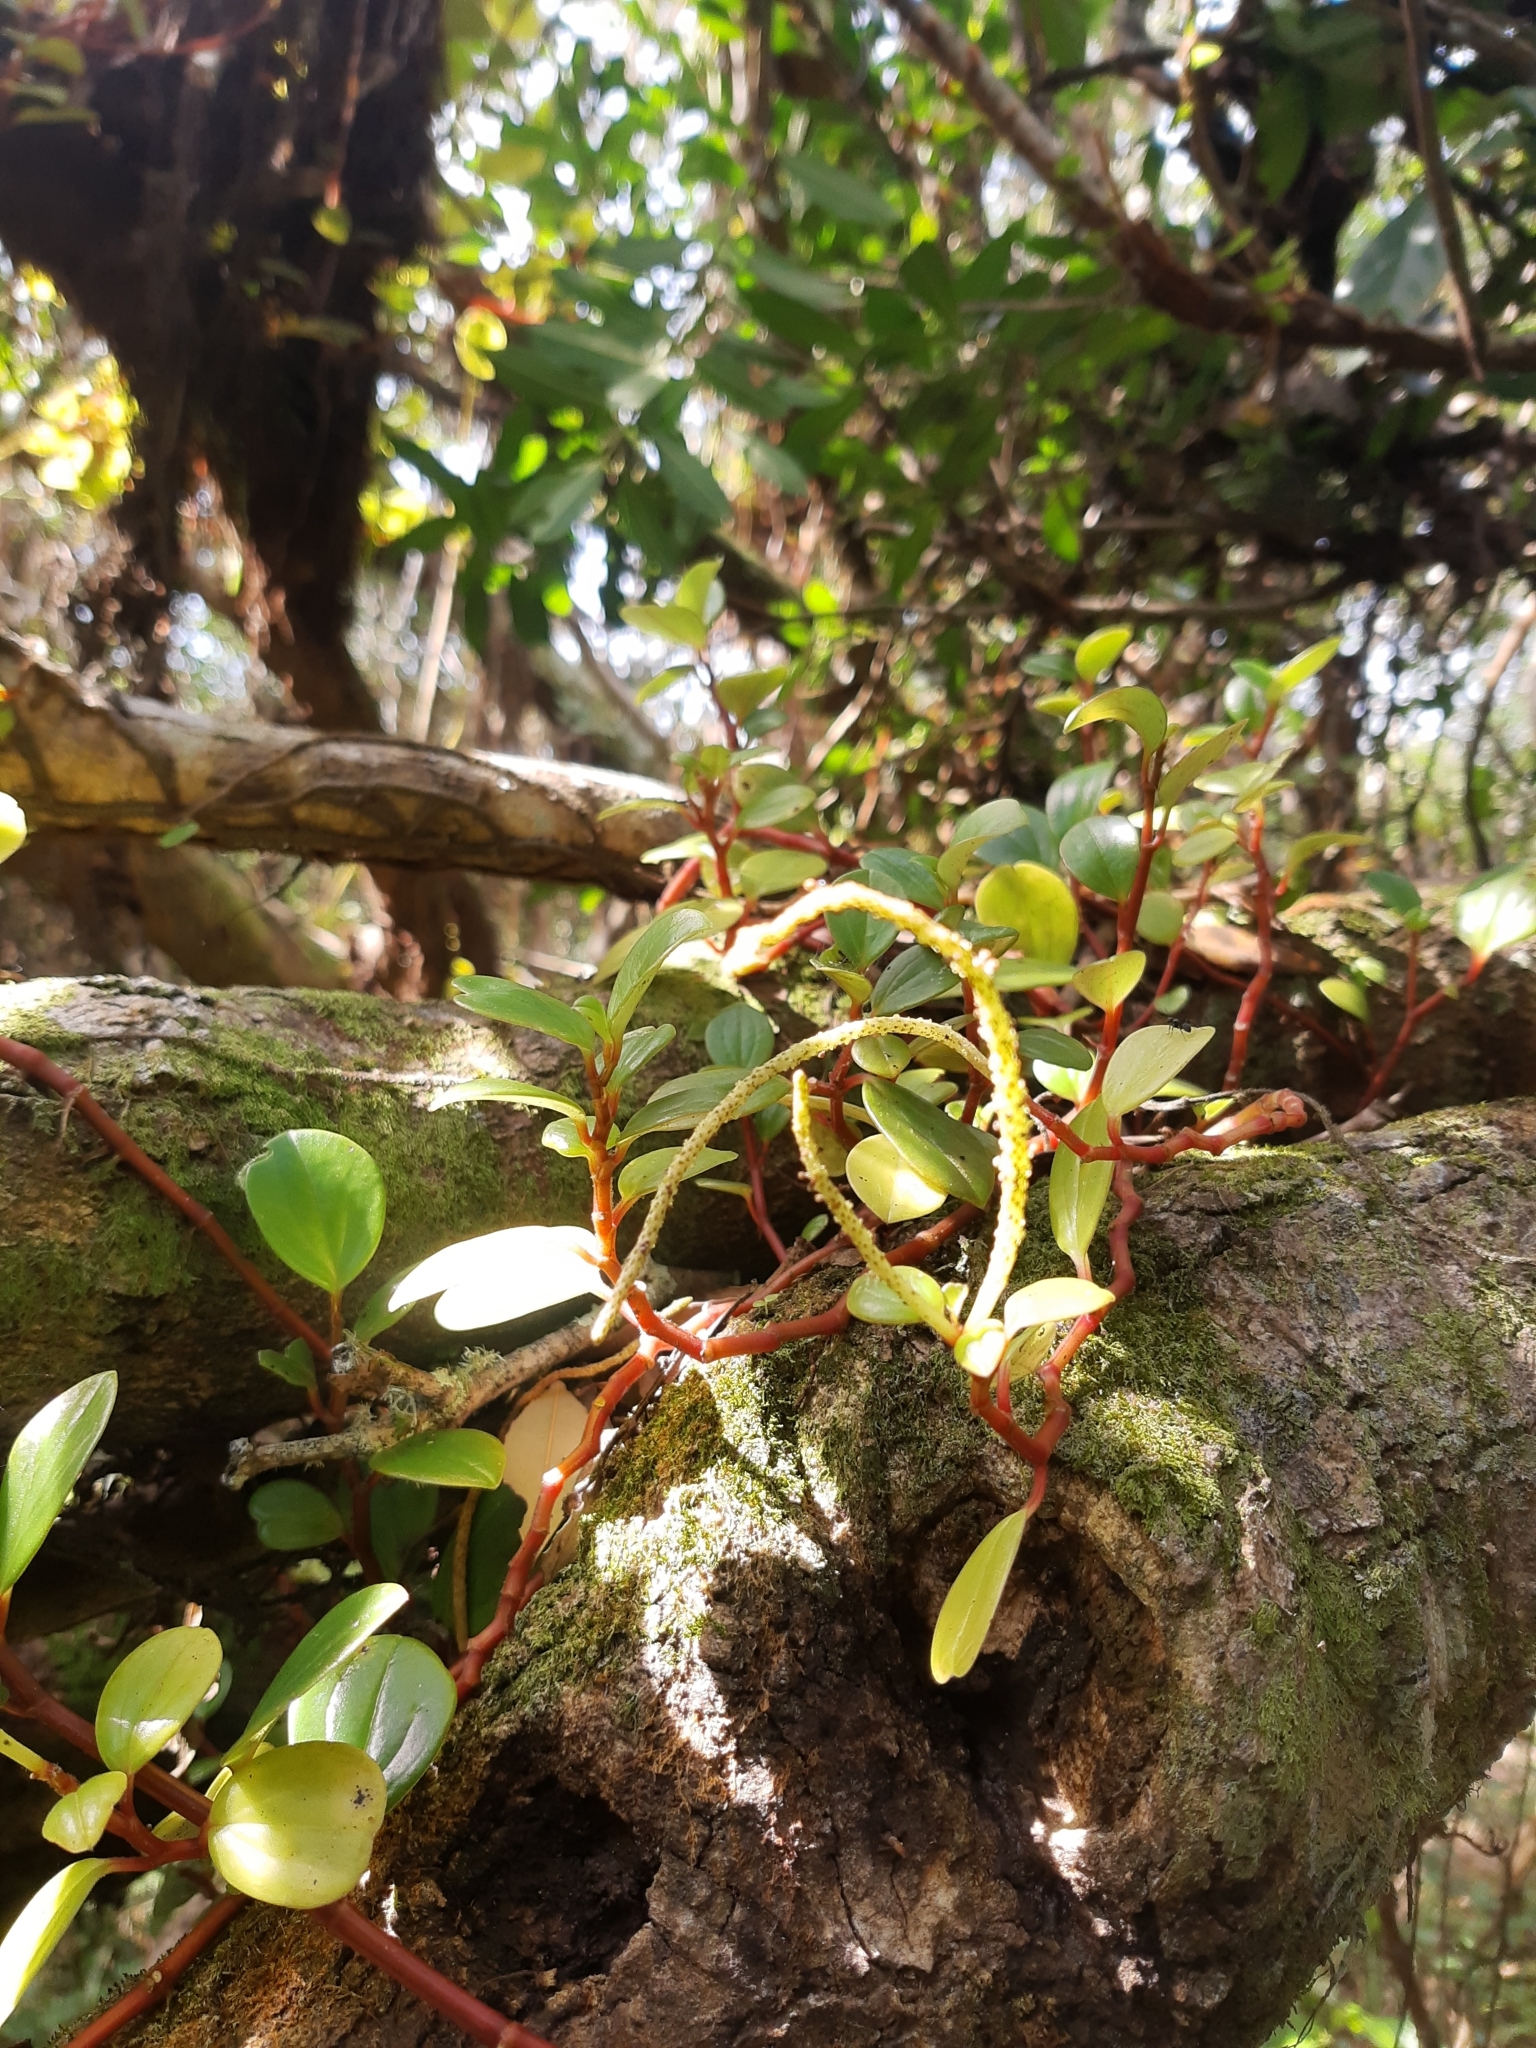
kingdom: Plantae
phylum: Tracheophyta
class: Magnoliopsida
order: Piperales
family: Piperaceae
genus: Peperomia
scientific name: Peperomia glabella
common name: Cypress peperomia
